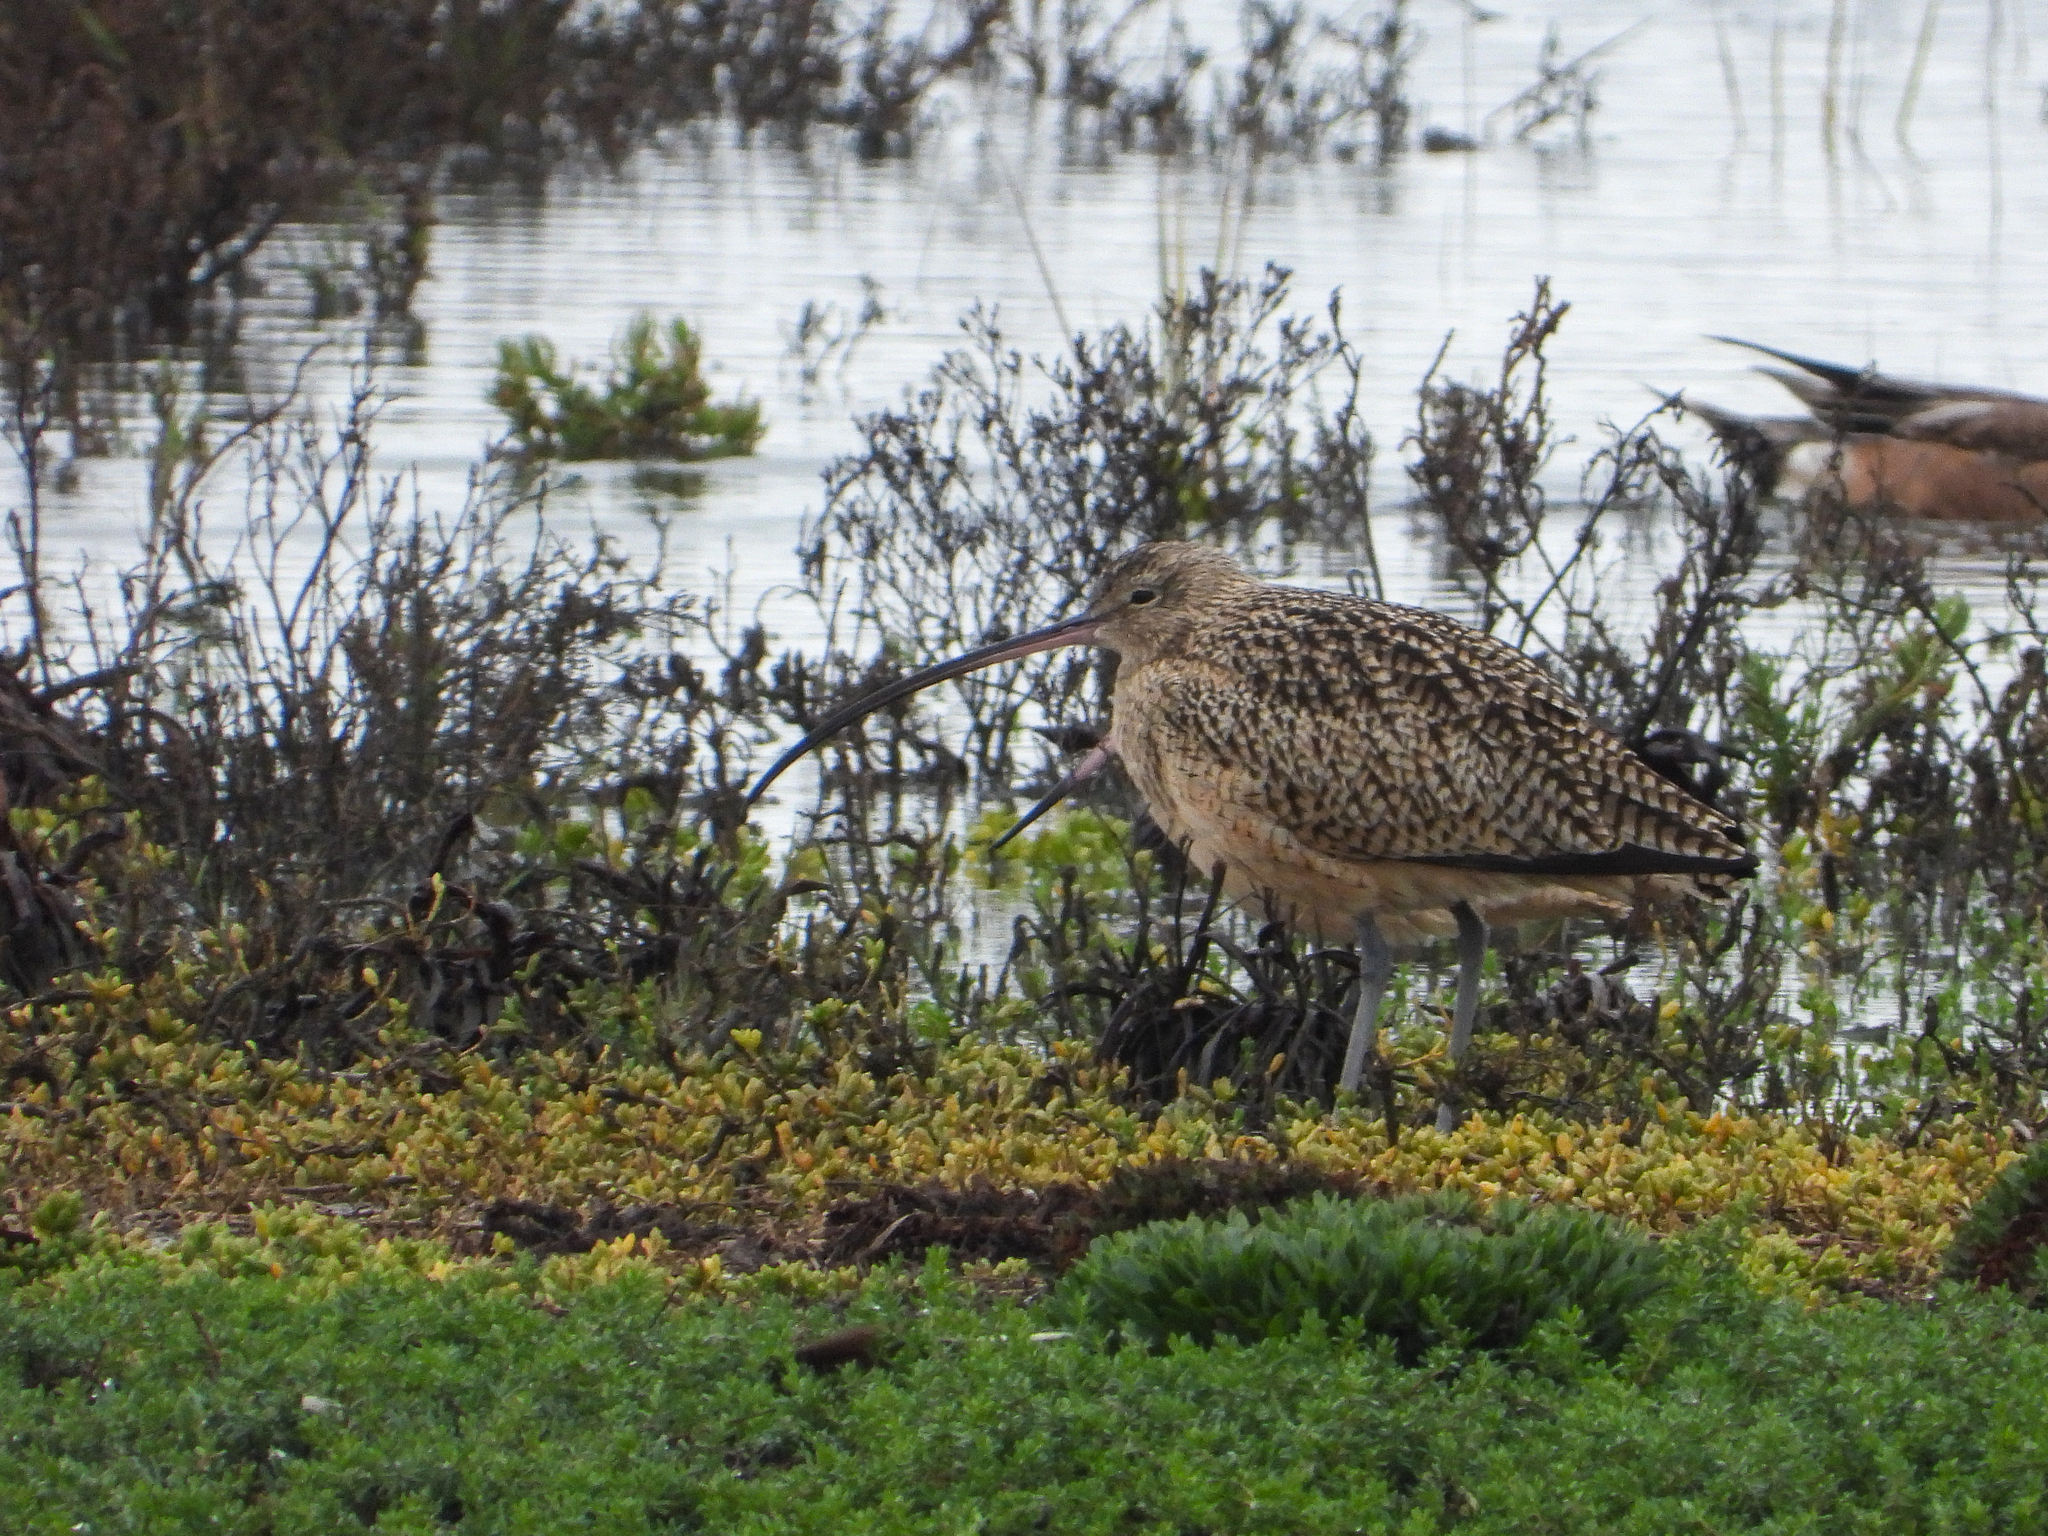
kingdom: Animalia
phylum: Chordata
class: Aves
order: Charadriiformes
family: Scolopacidae
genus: Numenius
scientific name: Numenius americanus
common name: Long-billed curlew
